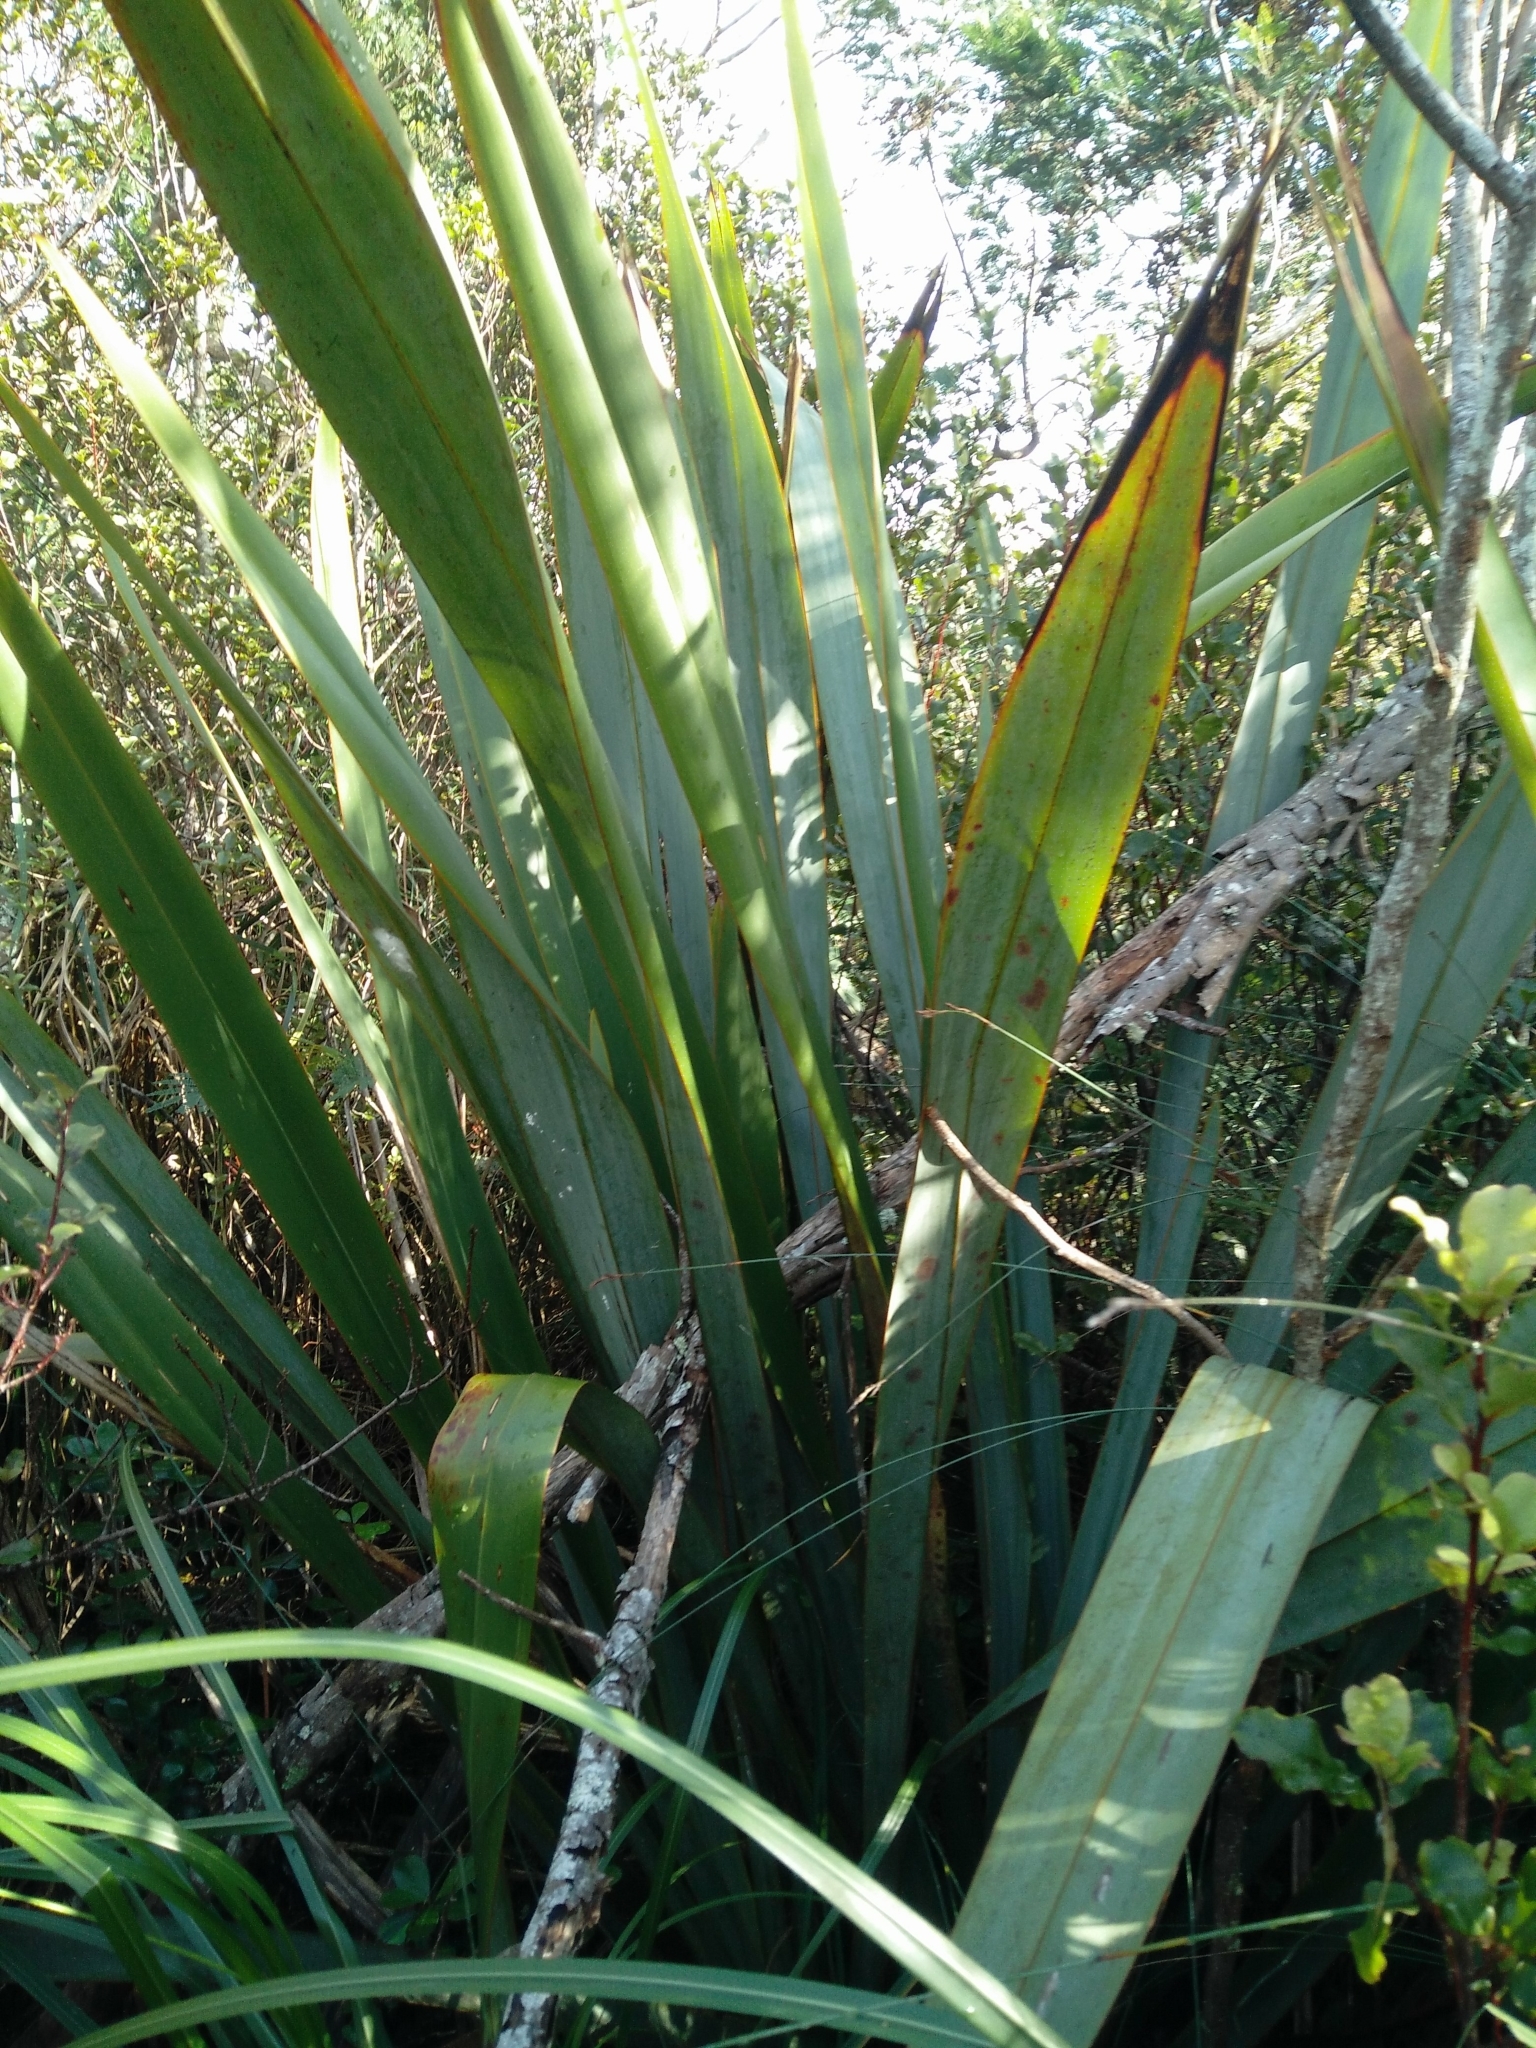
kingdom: Plantae
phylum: Tracheophyta
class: Liliopsida
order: Asparagales
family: Asphodelaceae
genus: Phormium
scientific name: Phormium tenax
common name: New zealand flax
